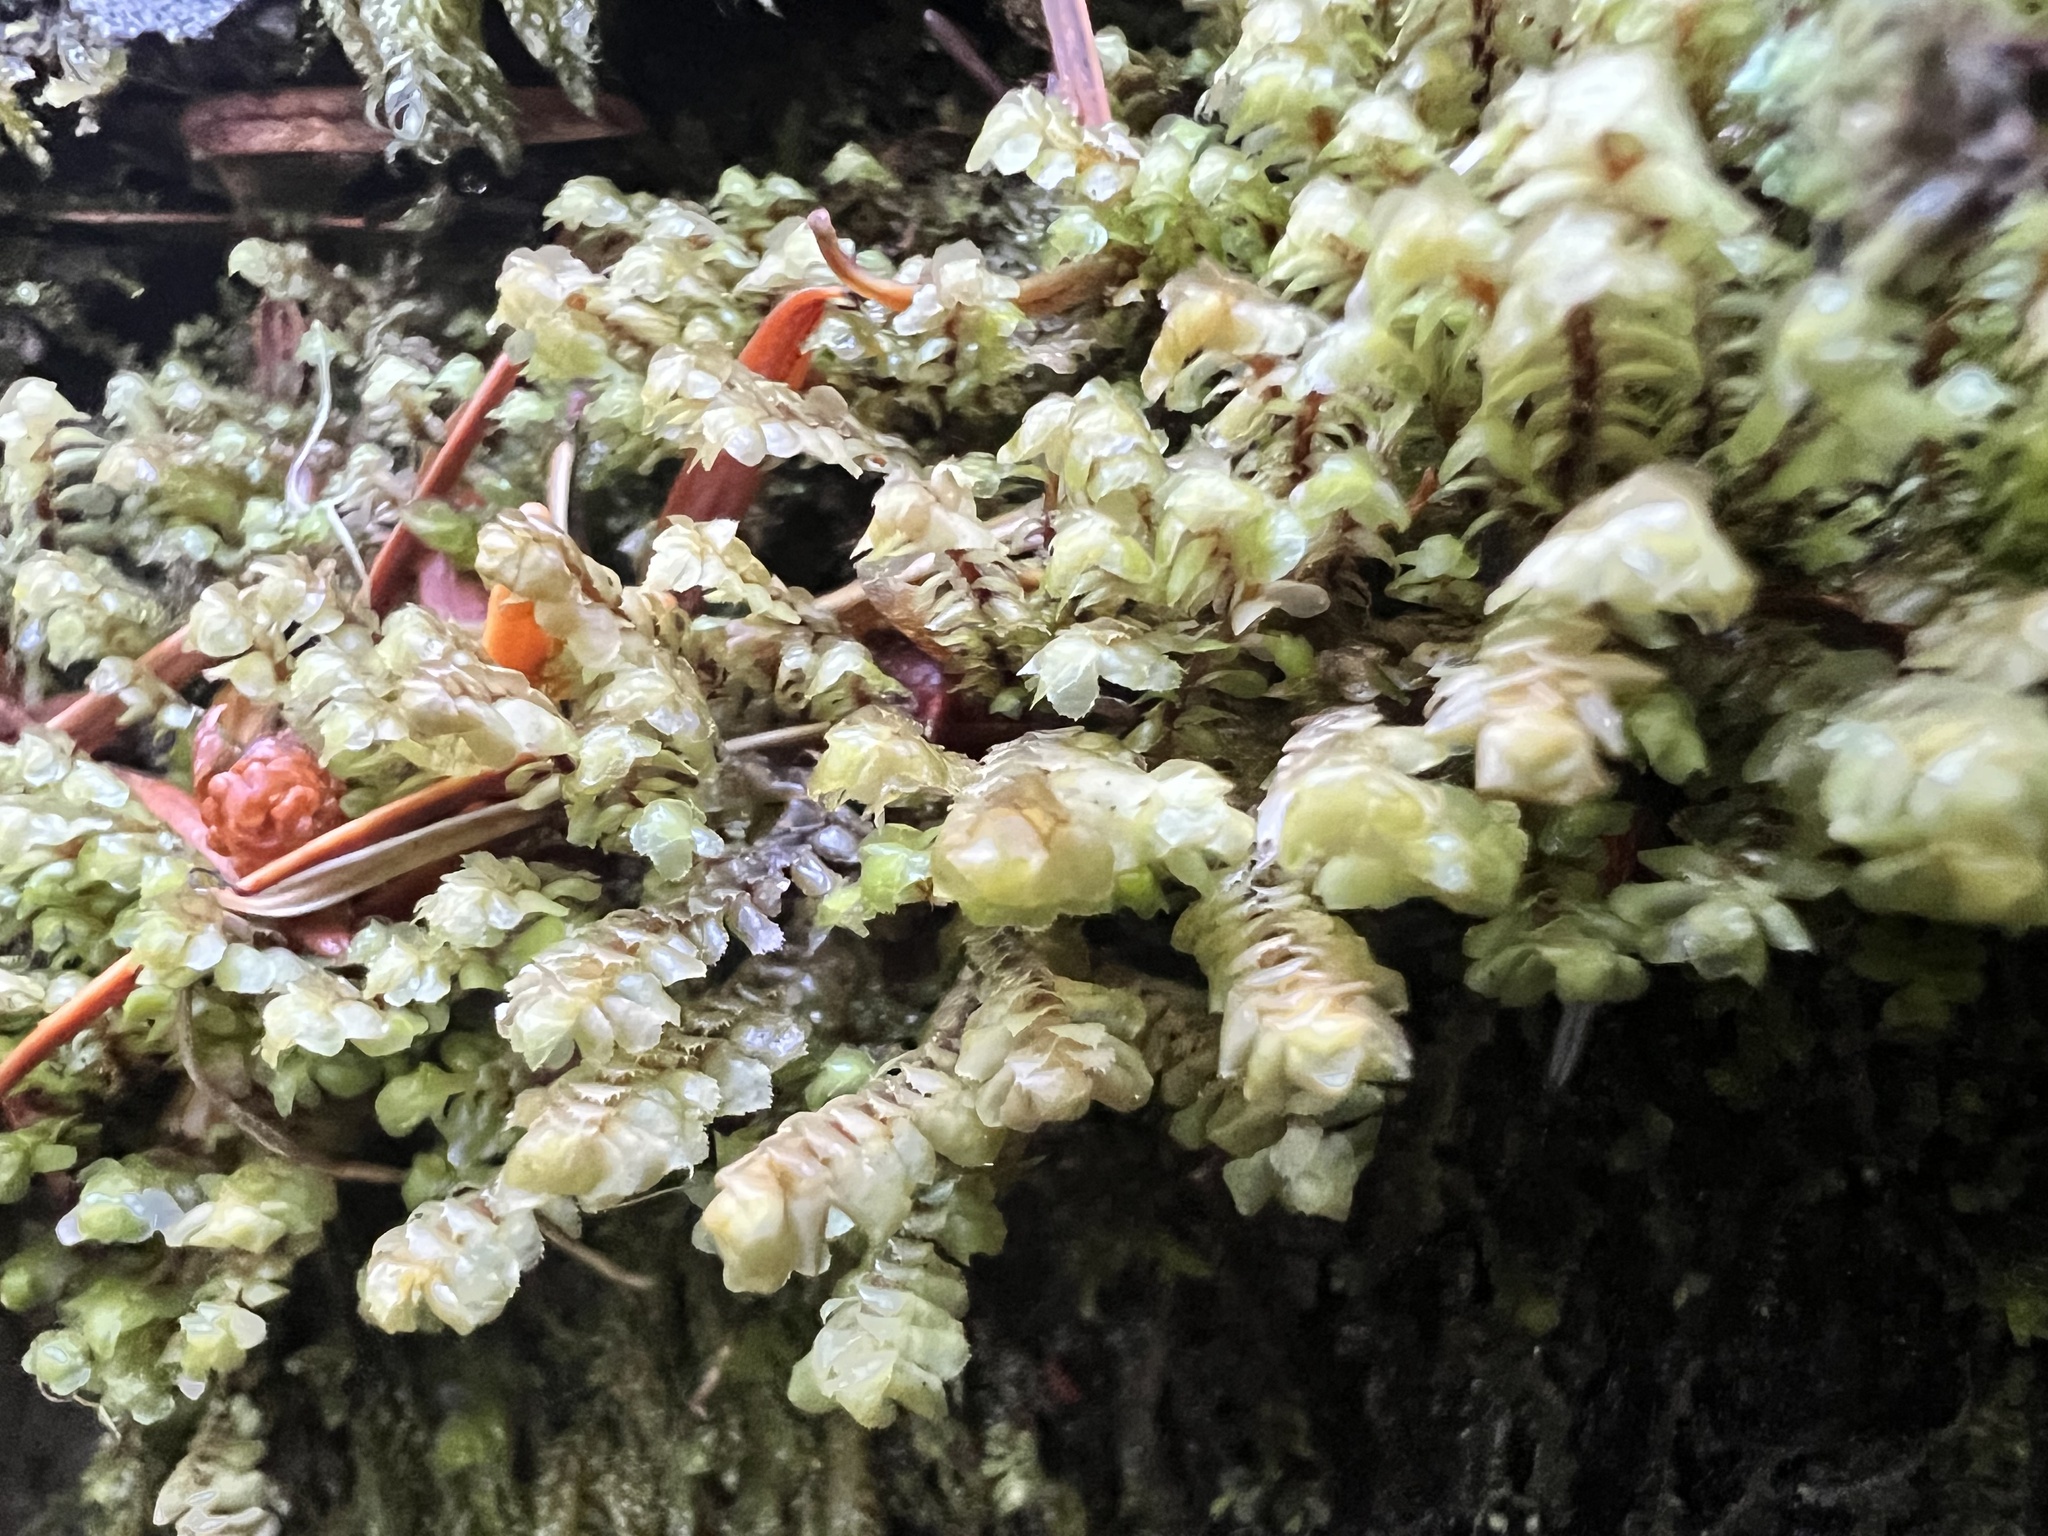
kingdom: Plantae
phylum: Marchantiophyta
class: Jungermanniopsida
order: Jungermanniales
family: Scapaniaceae
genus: Scapania
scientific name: Scapania bolanderi
